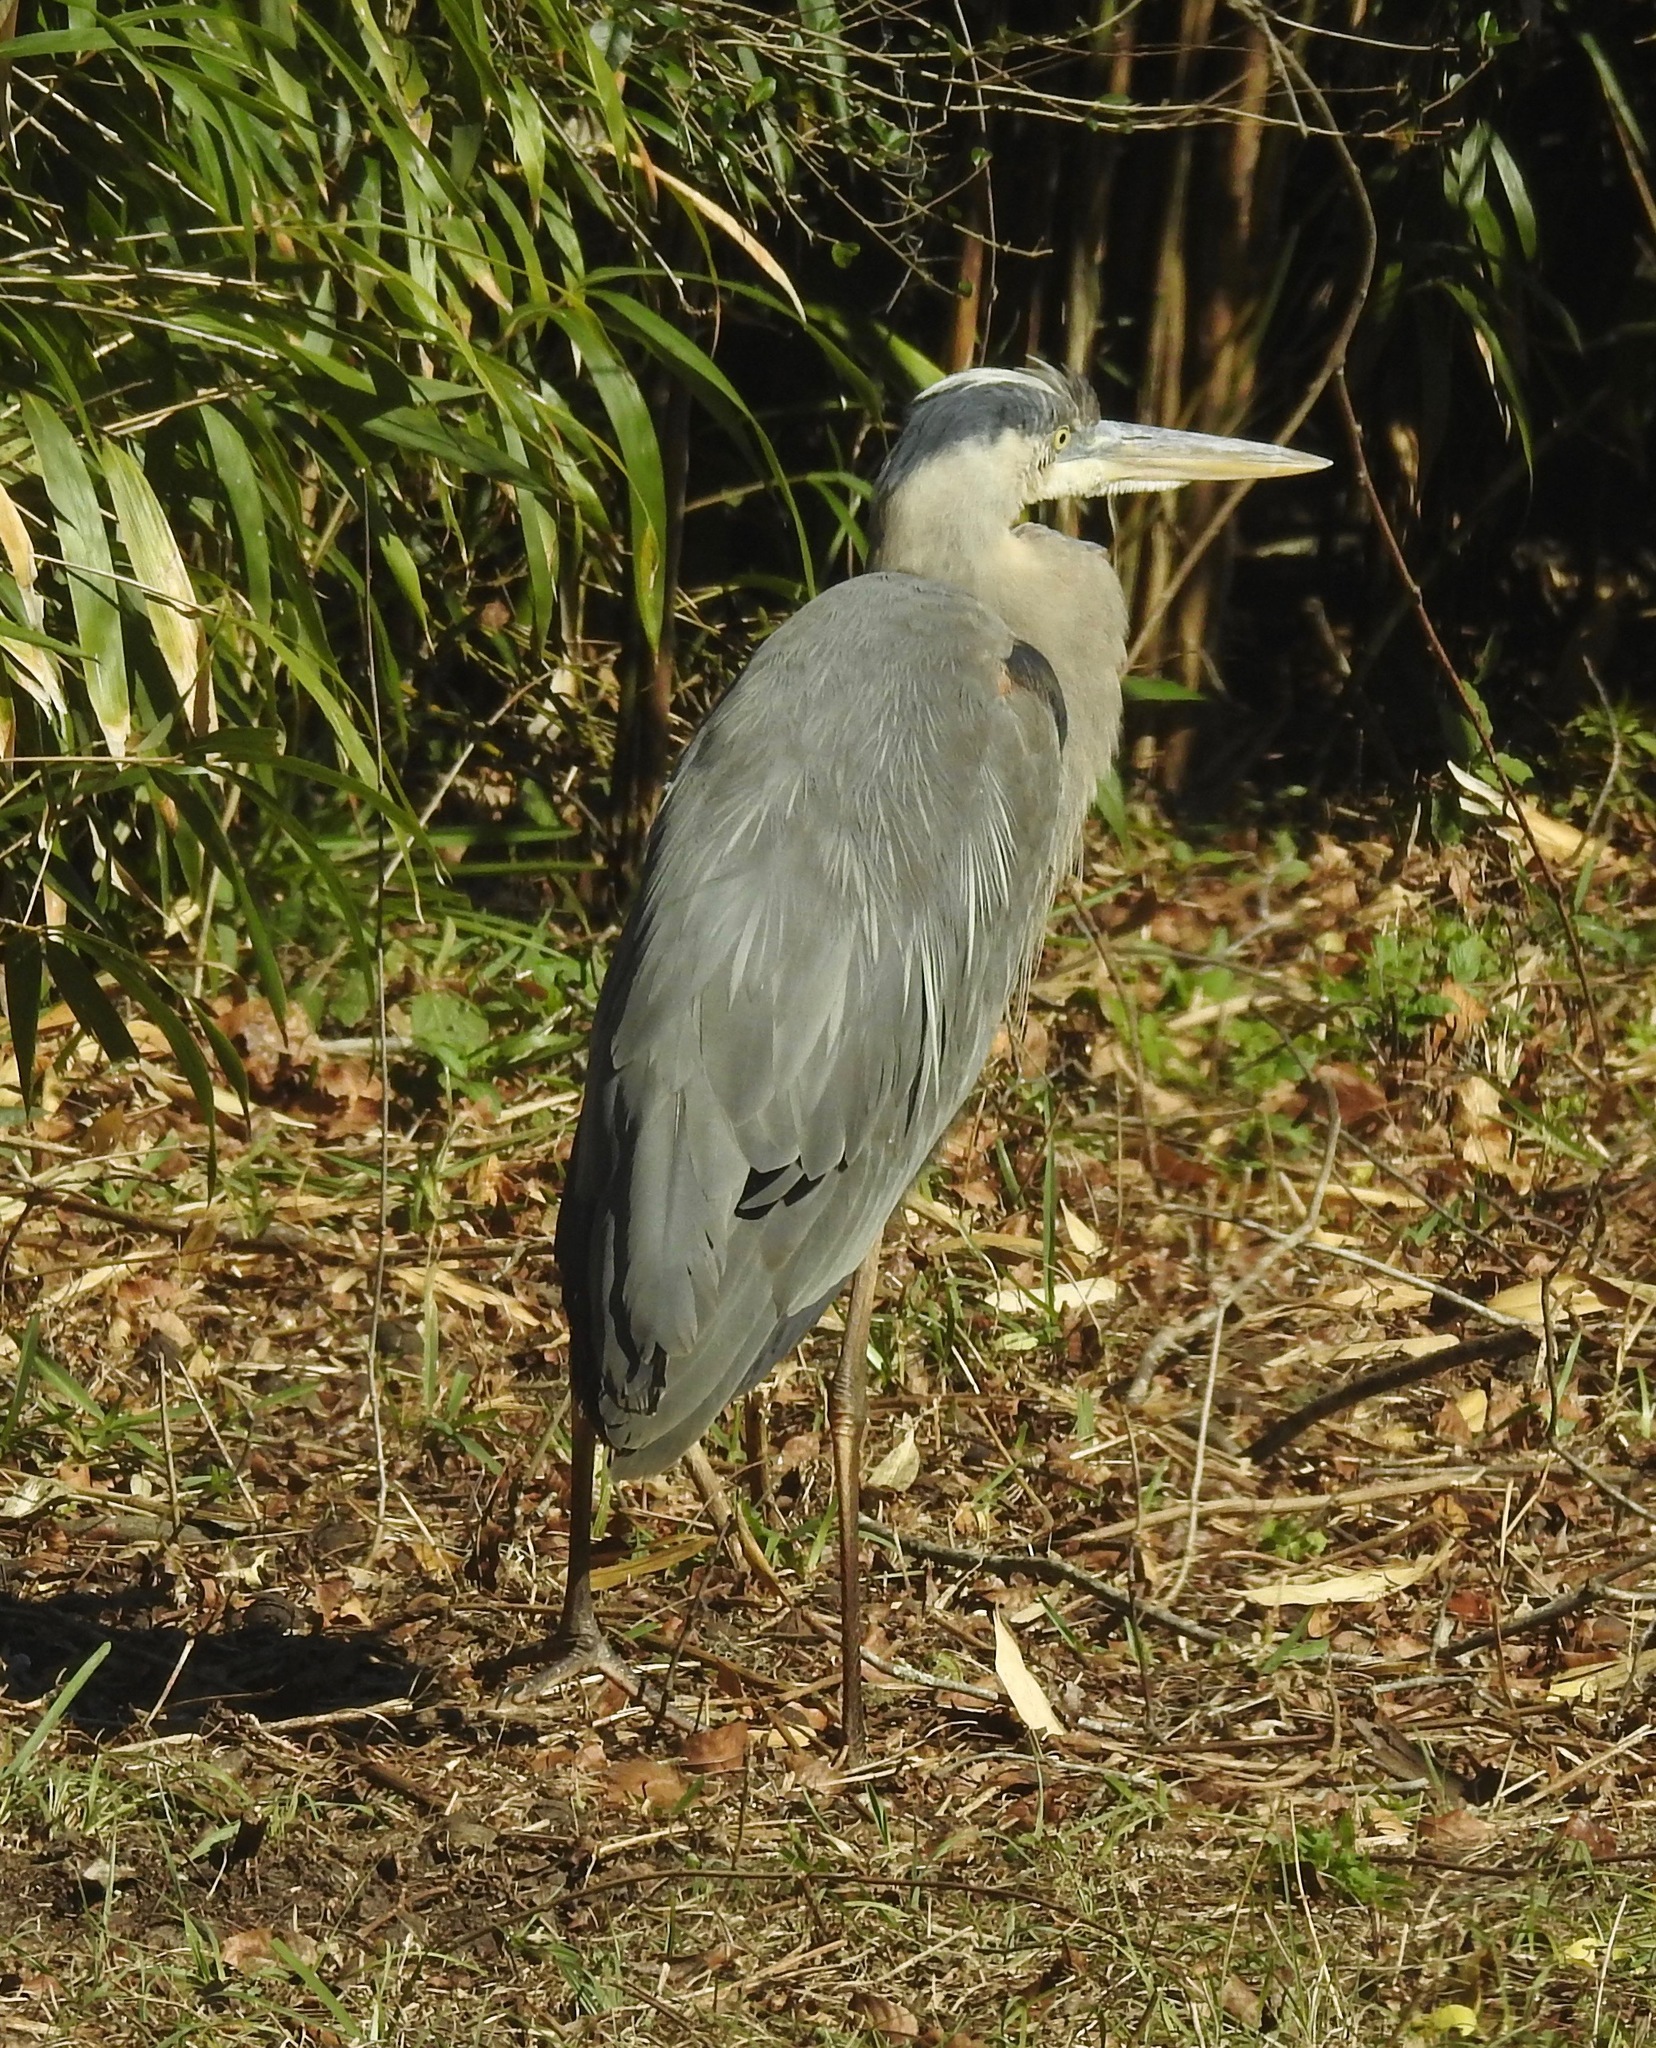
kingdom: Animalia
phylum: Chordata
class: Aves
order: Pelecaniformes
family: Ardeidae
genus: Ardea
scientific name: Ardea herodias
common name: Great blue heron
